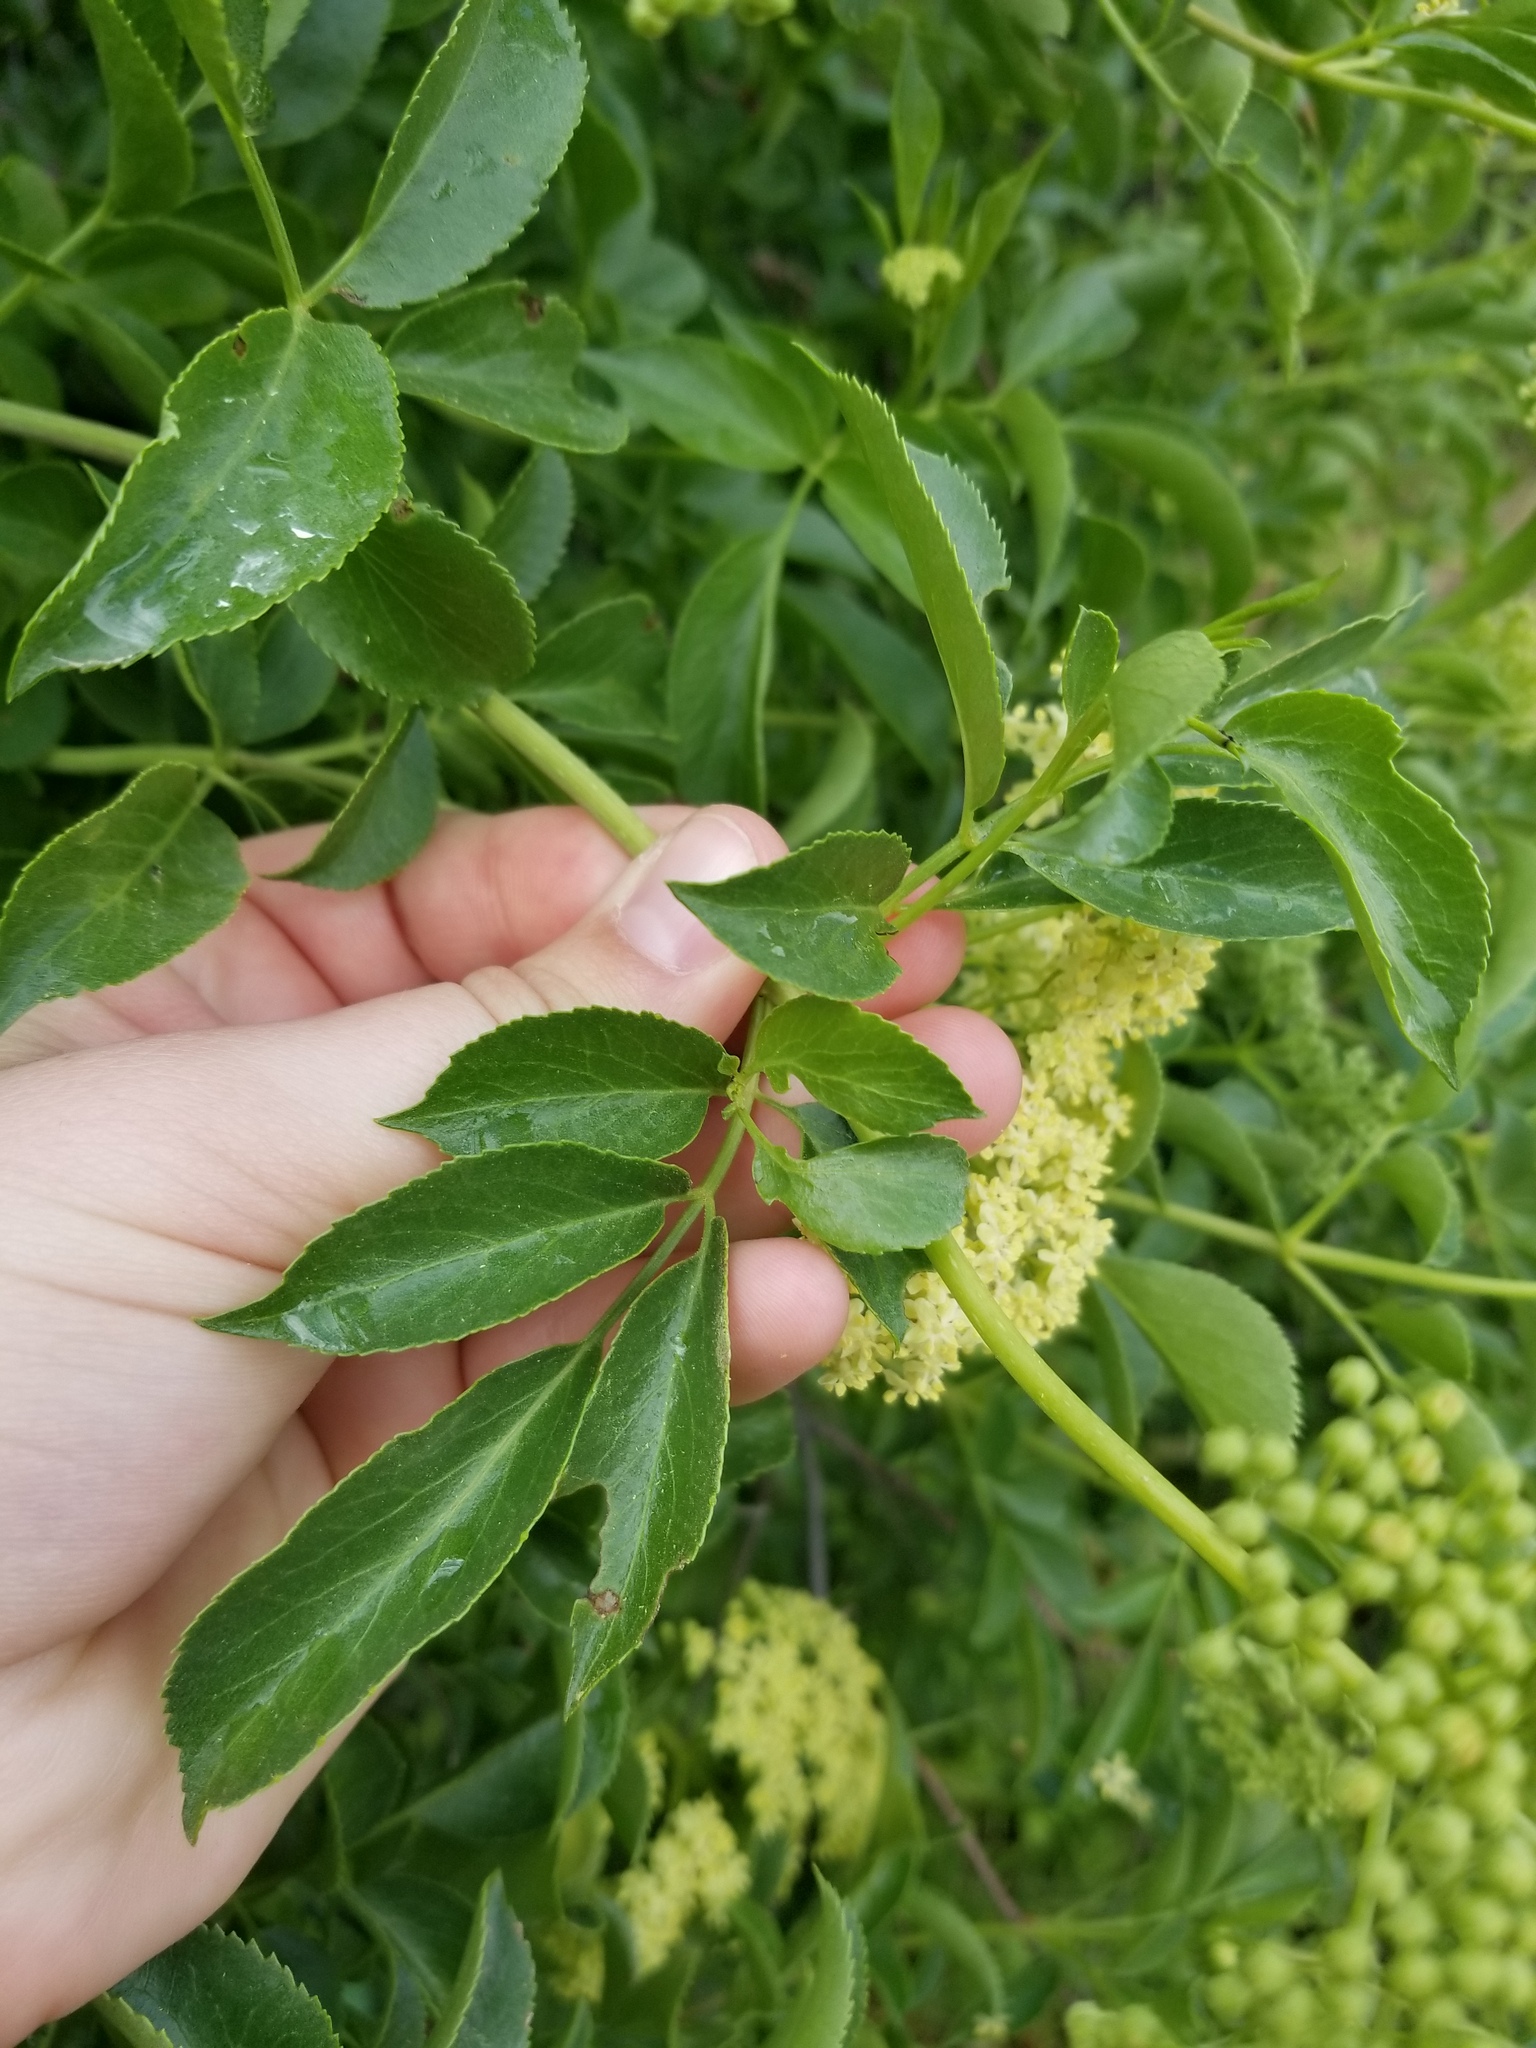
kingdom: Plantae
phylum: Tracheophyta
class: Magnoliopsida
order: Dipsacales
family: Viburnaceae
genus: Sambucus
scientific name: Sambucus cerulea
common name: Blue elder
